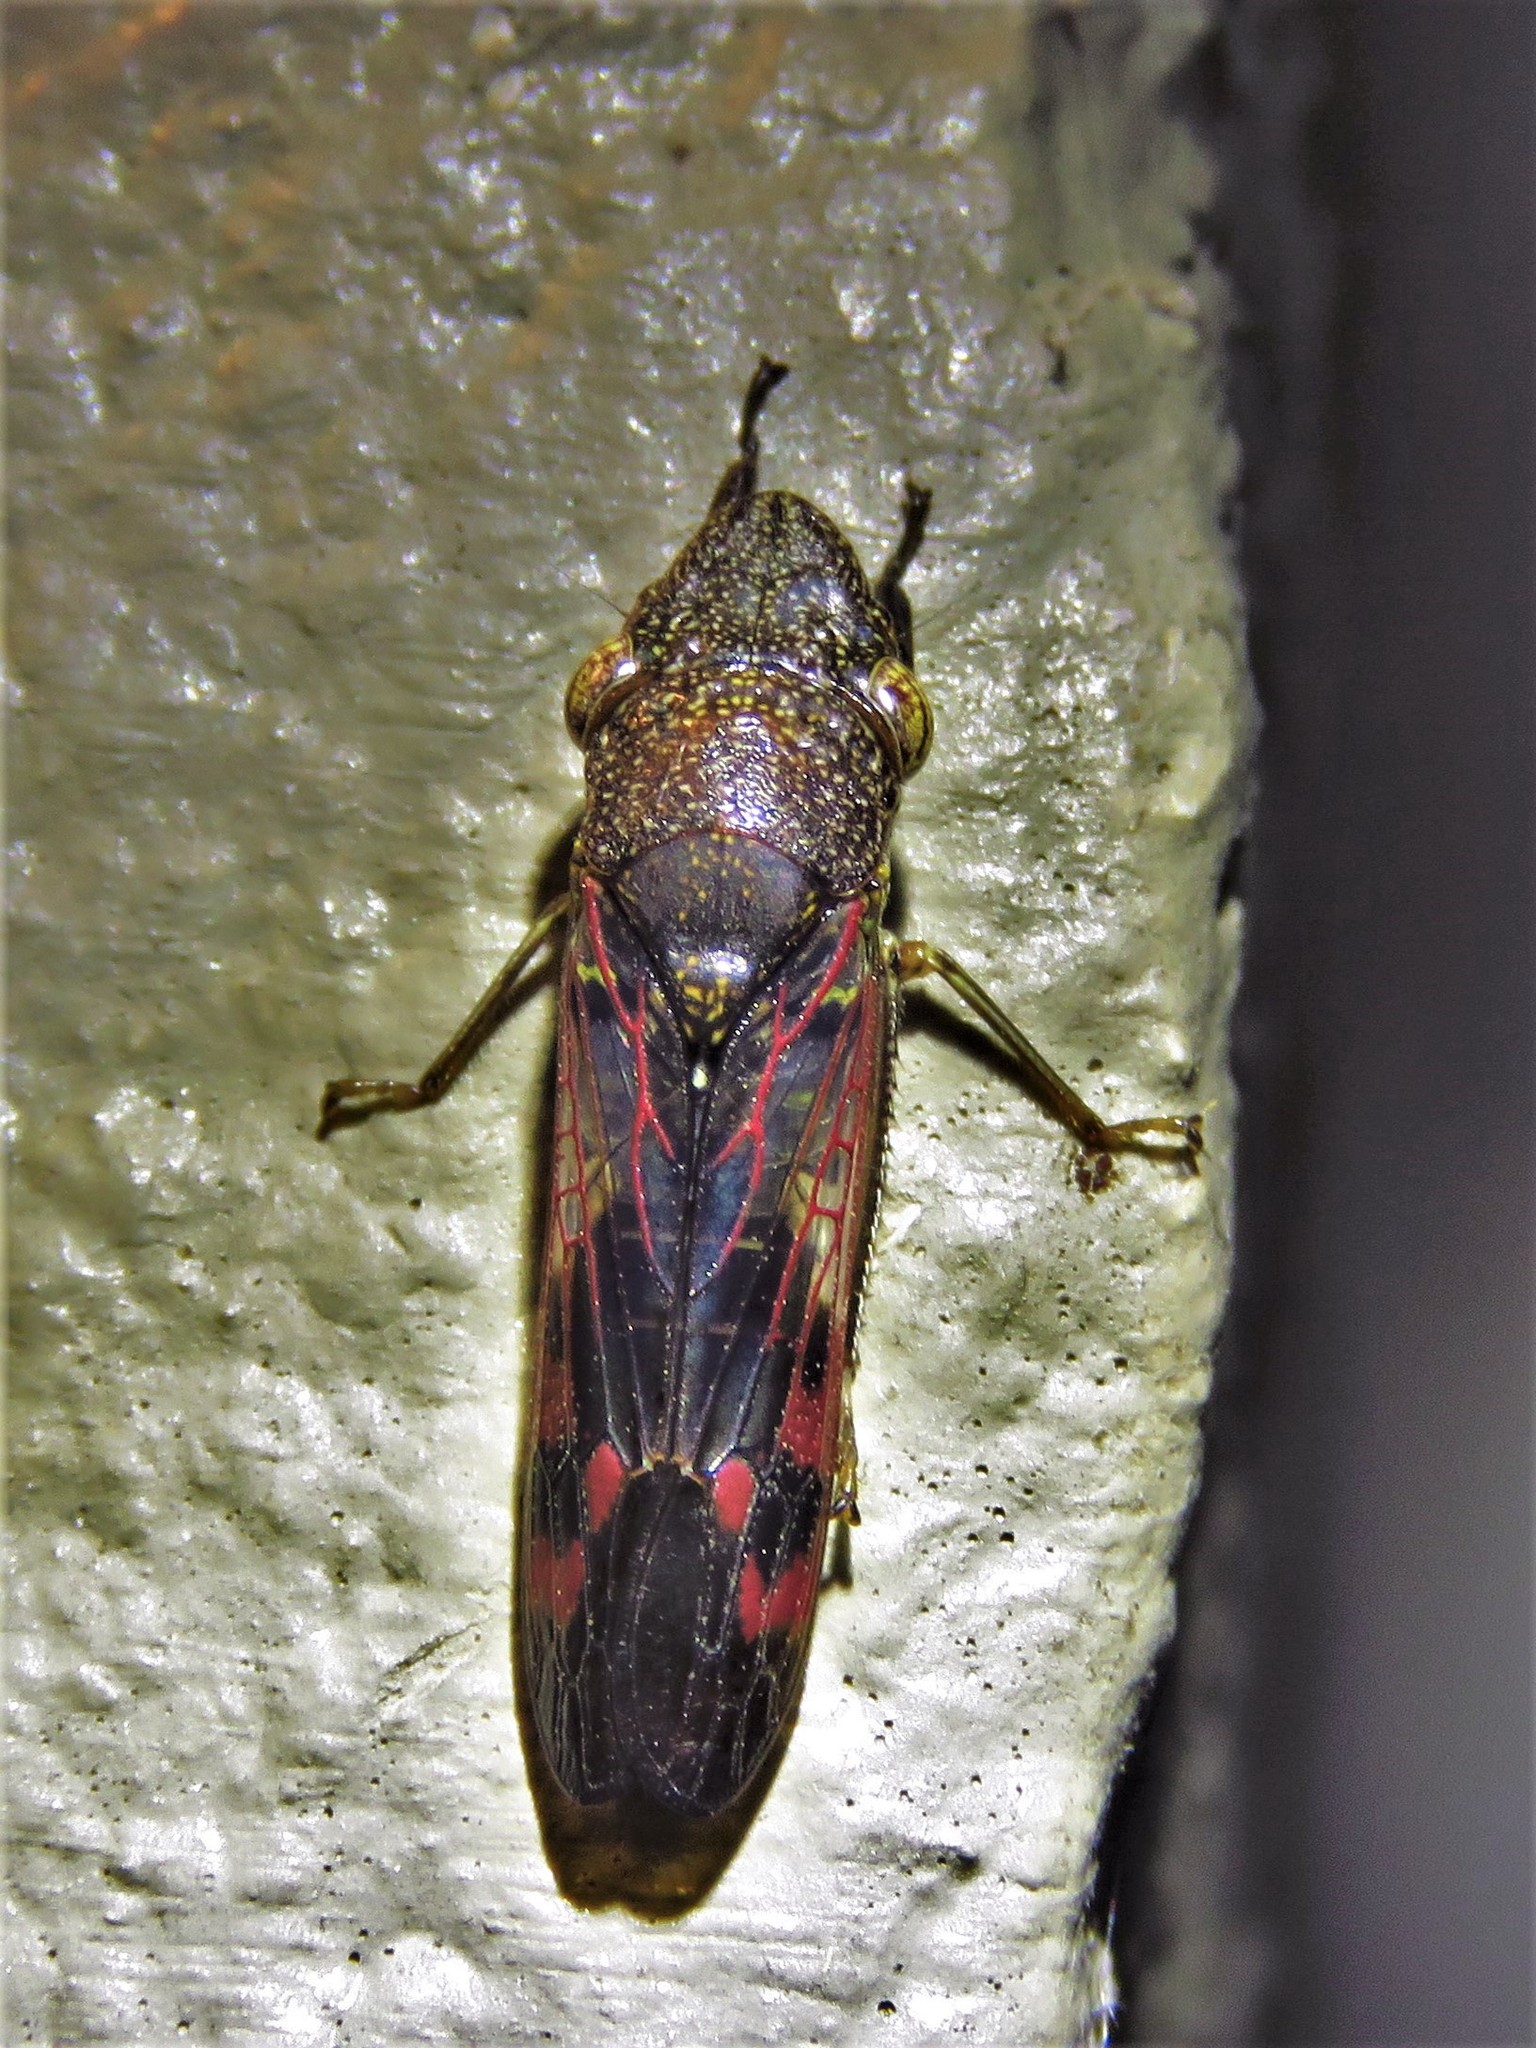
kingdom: Animalia
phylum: Arthropoda
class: Insecta
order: Hemiptera
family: Cicadellidae
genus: Homalodisca
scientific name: Homalodisca vitripennis
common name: Glassy-winged sharpshooter
